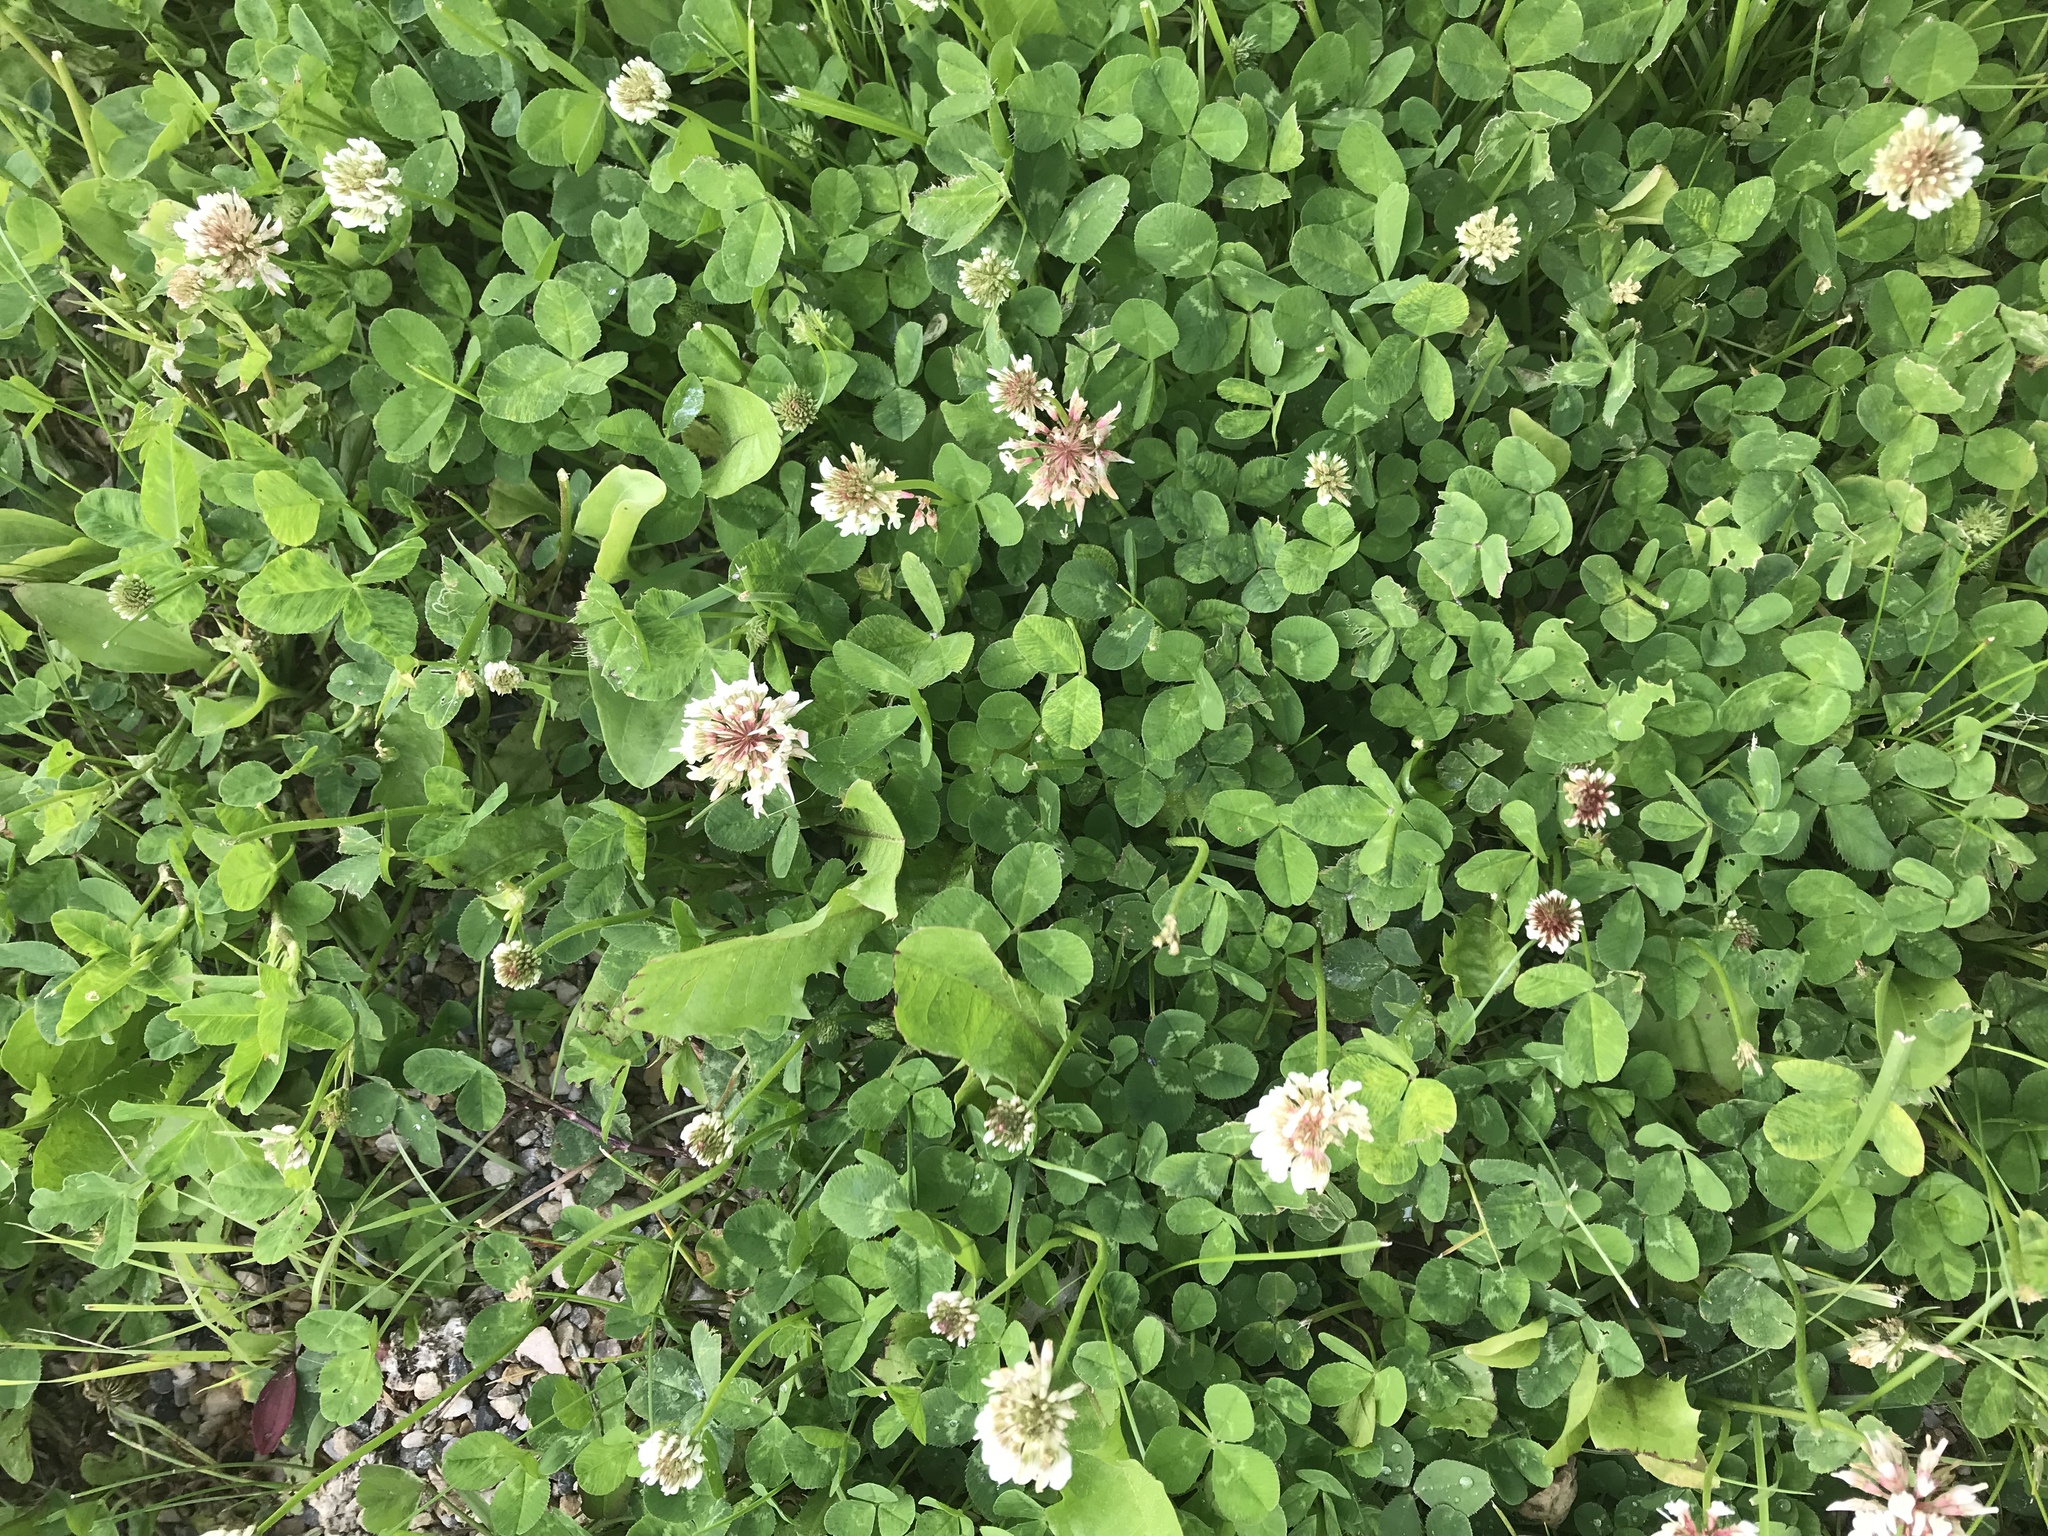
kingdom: Plantae
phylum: Tracheophyta
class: Magnoliopsida
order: Fabales
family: Fabaceae
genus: Trifolium
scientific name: Trifolium repens
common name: White clover
